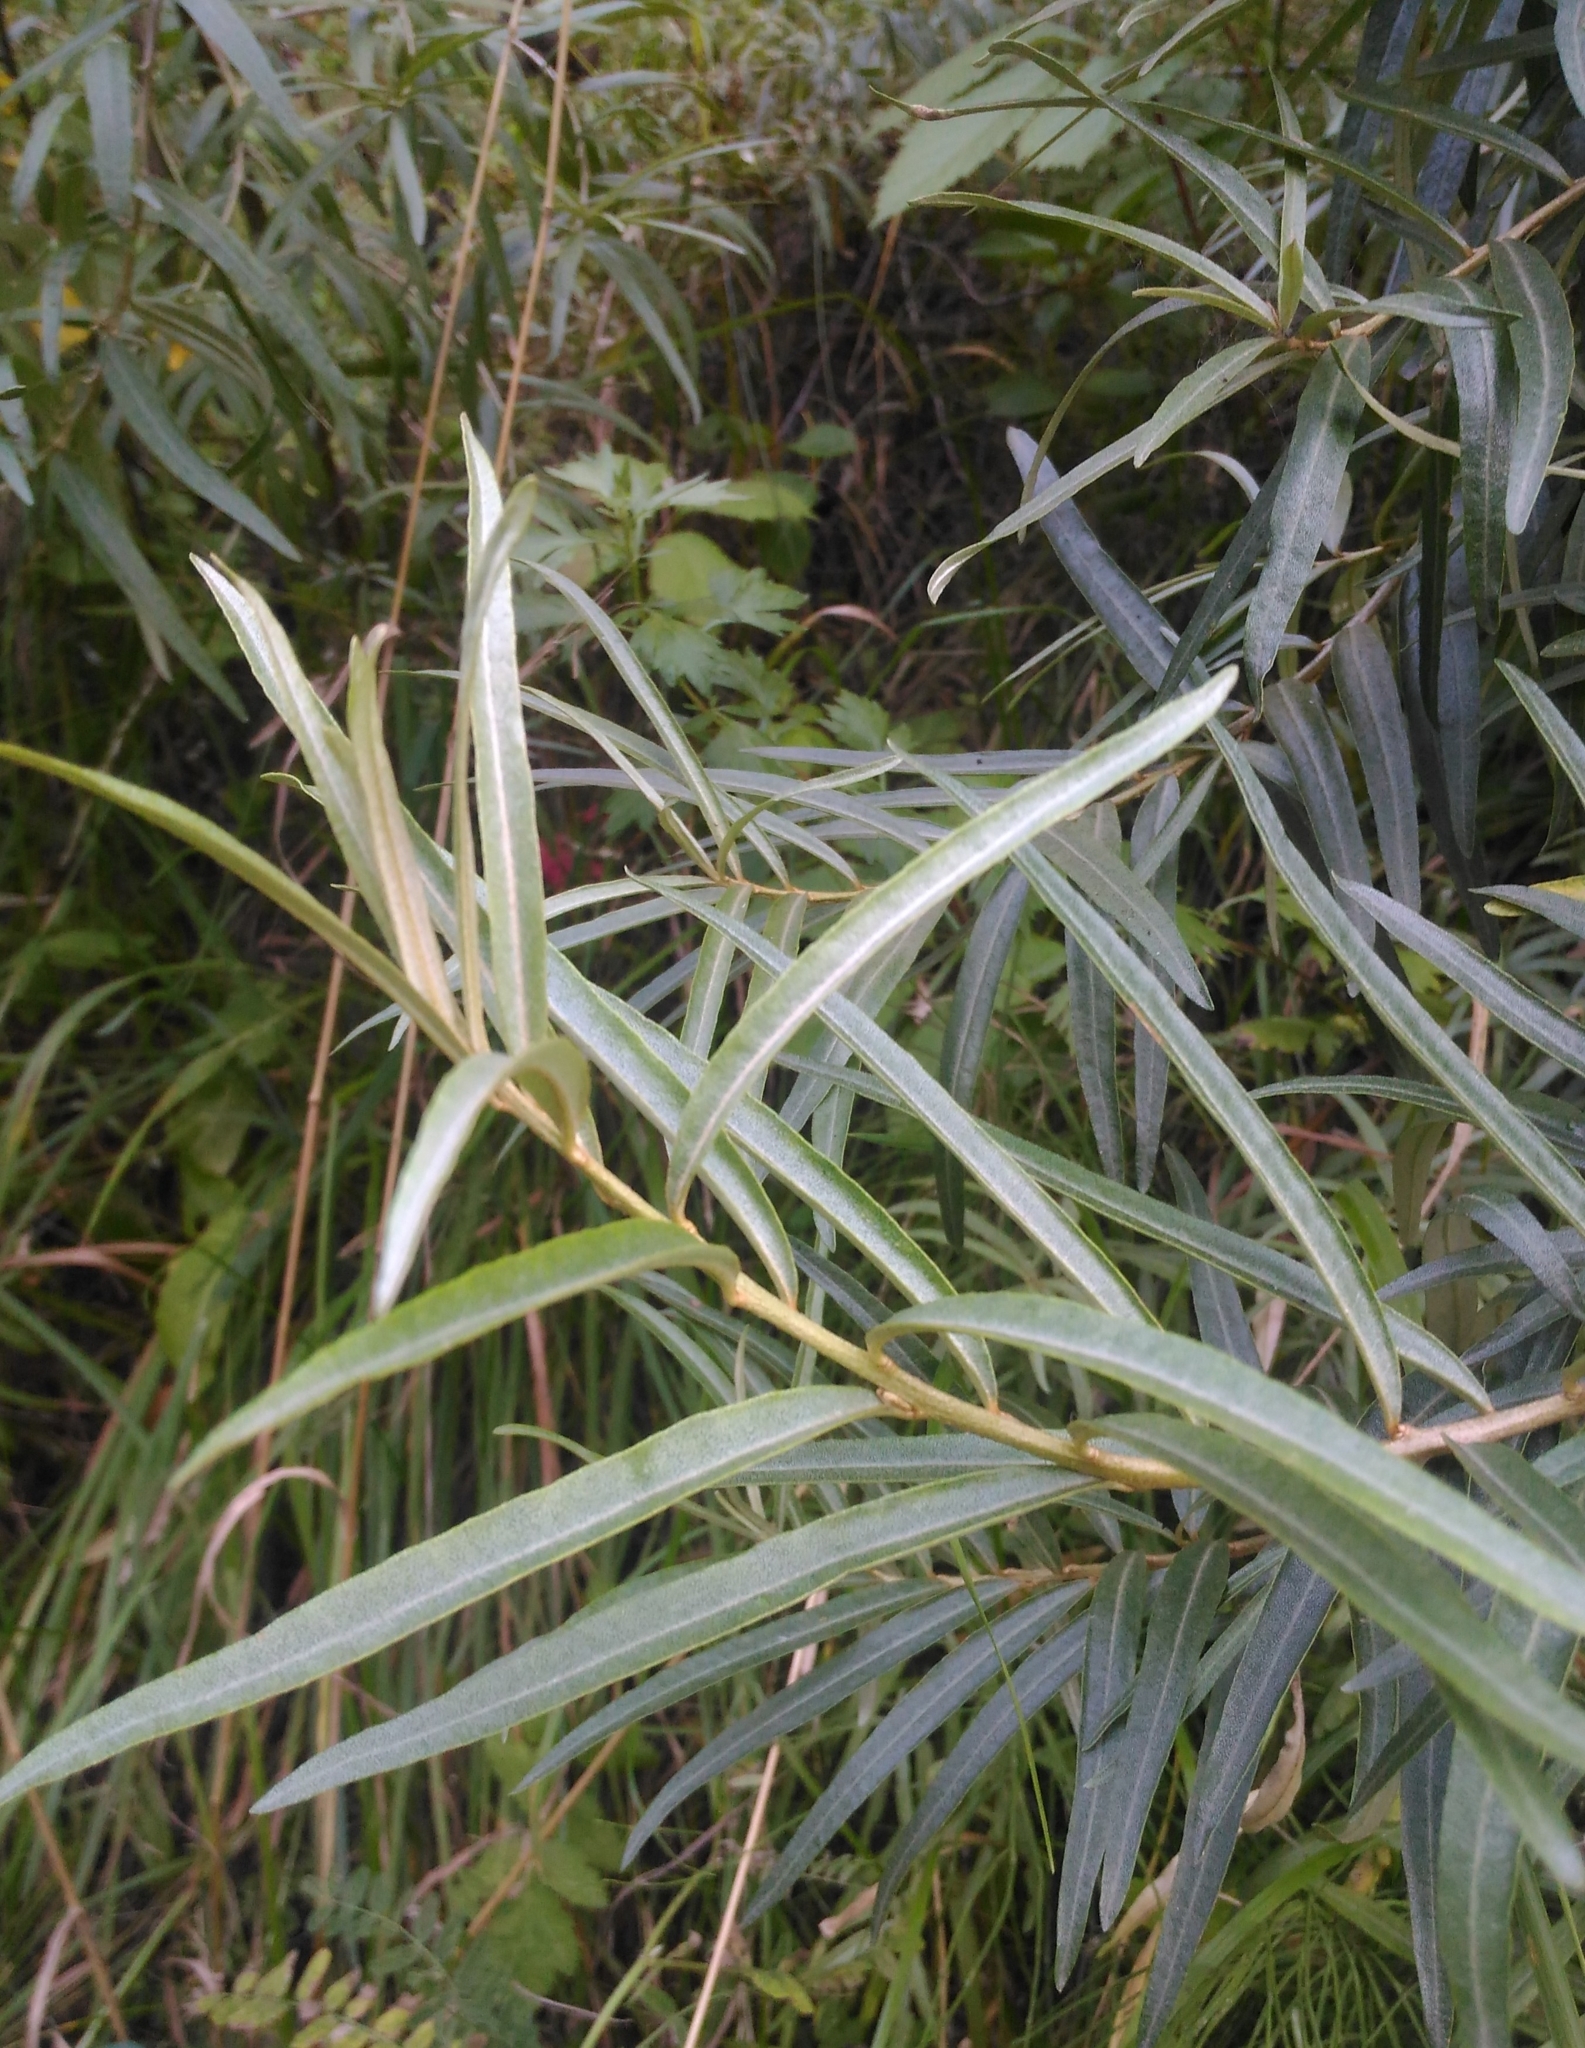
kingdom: Plantae
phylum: Tracheophyta
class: Magnoliopsida
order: Malpighiales
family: Salicaceae
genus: Salix
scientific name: Salix viminalis
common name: Osier
